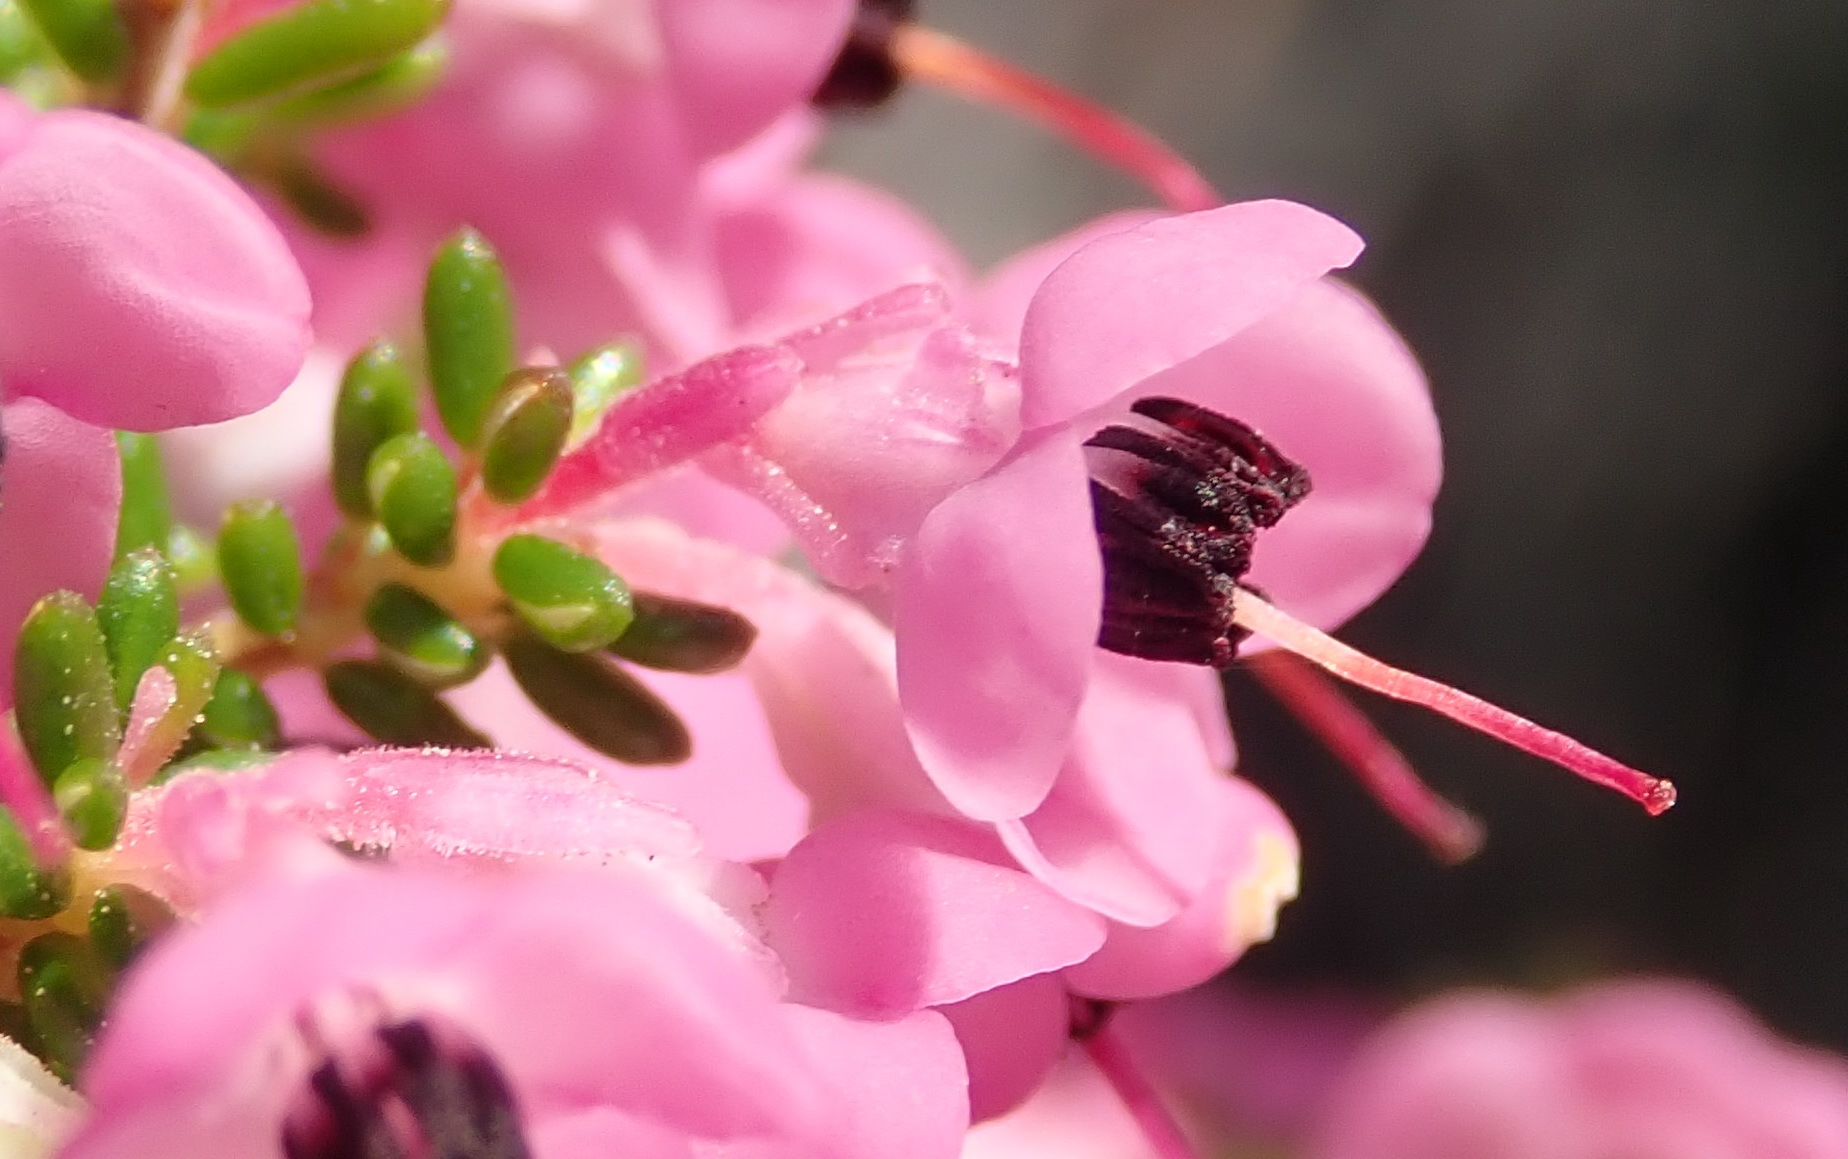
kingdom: Plantae
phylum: Tracheophyta
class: Magnoliopsida
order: Ericales
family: Ericaceae
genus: Erica
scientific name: Erica melanthera
